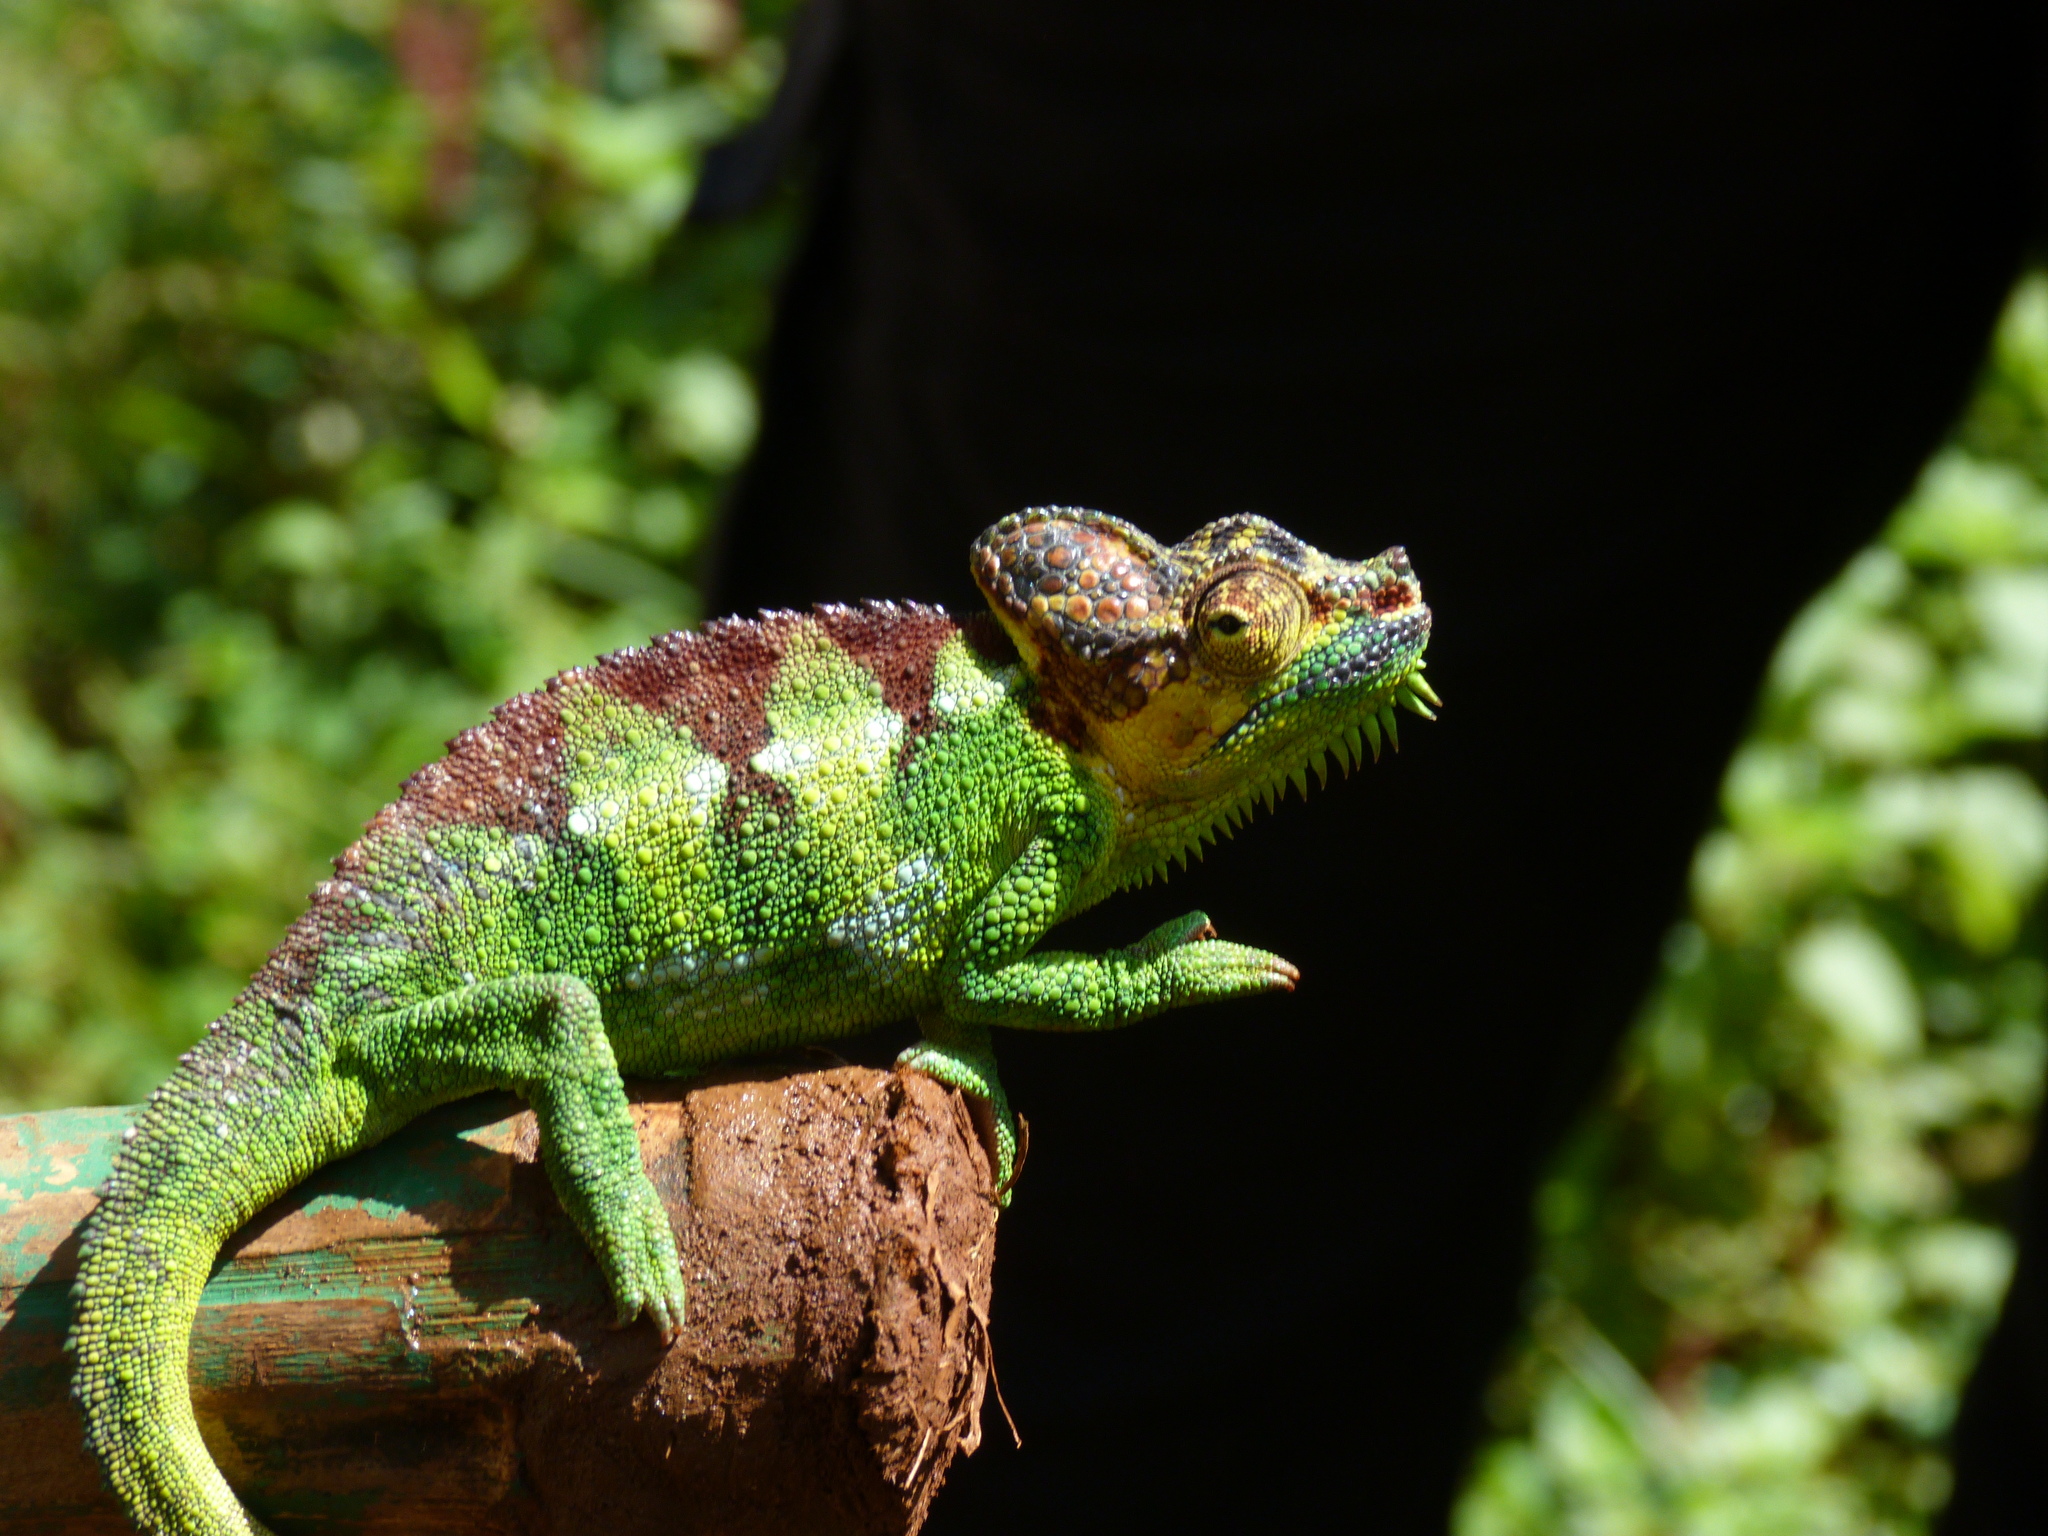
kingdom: Animalia
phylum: Chordata
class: Squamata
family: Chamaeleonidae
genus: Trioceros
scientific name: Trioceros hoehnelii
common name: High-casqued chameleon
